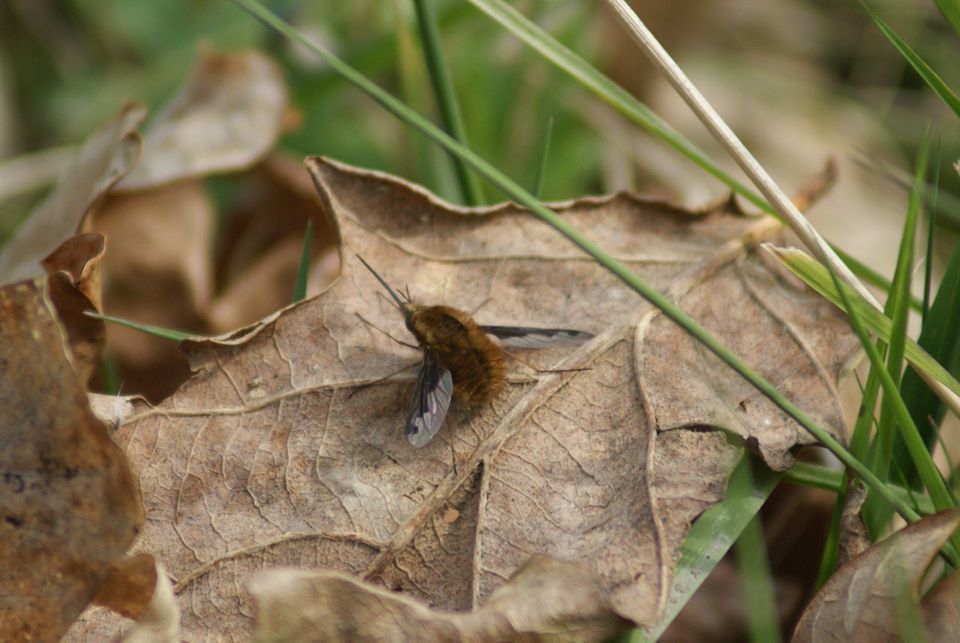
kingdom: Animalia
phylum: Arthropoda
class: Insecta
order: Diptera
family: Bombyliidae
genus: Bombylius
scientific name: Bombylius major
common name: Bee fly
